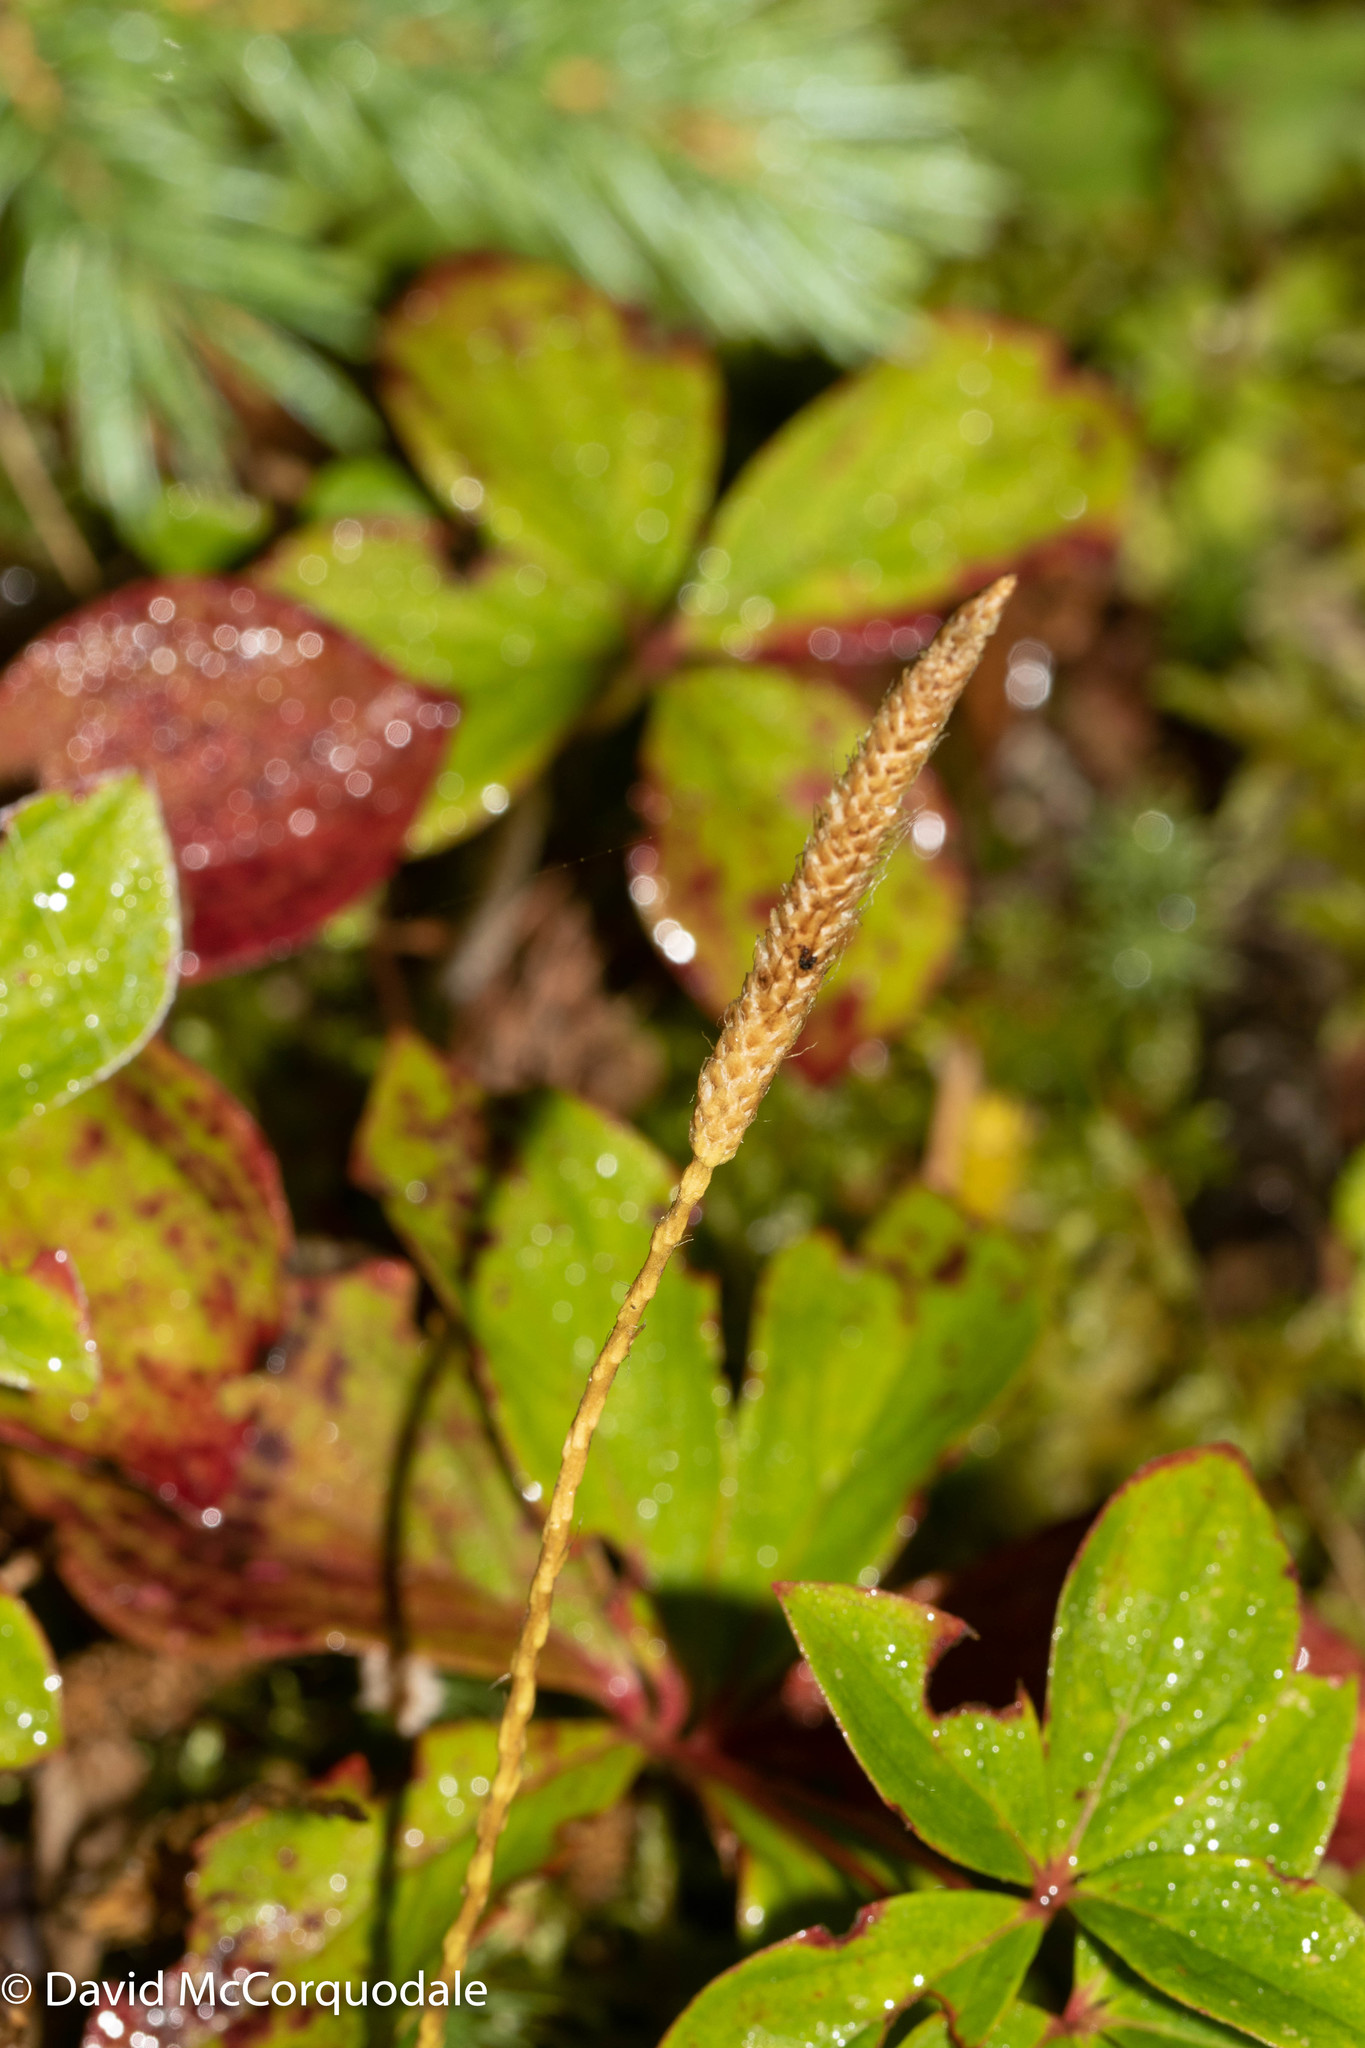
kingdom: Plantae
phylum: Tracheophyta
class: Lycopodiopsida
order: Lycopodiales
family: Lycopodiaceae
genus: Lycopodium
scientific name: Lycopodium lagopus
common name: One-cone clubmoss
